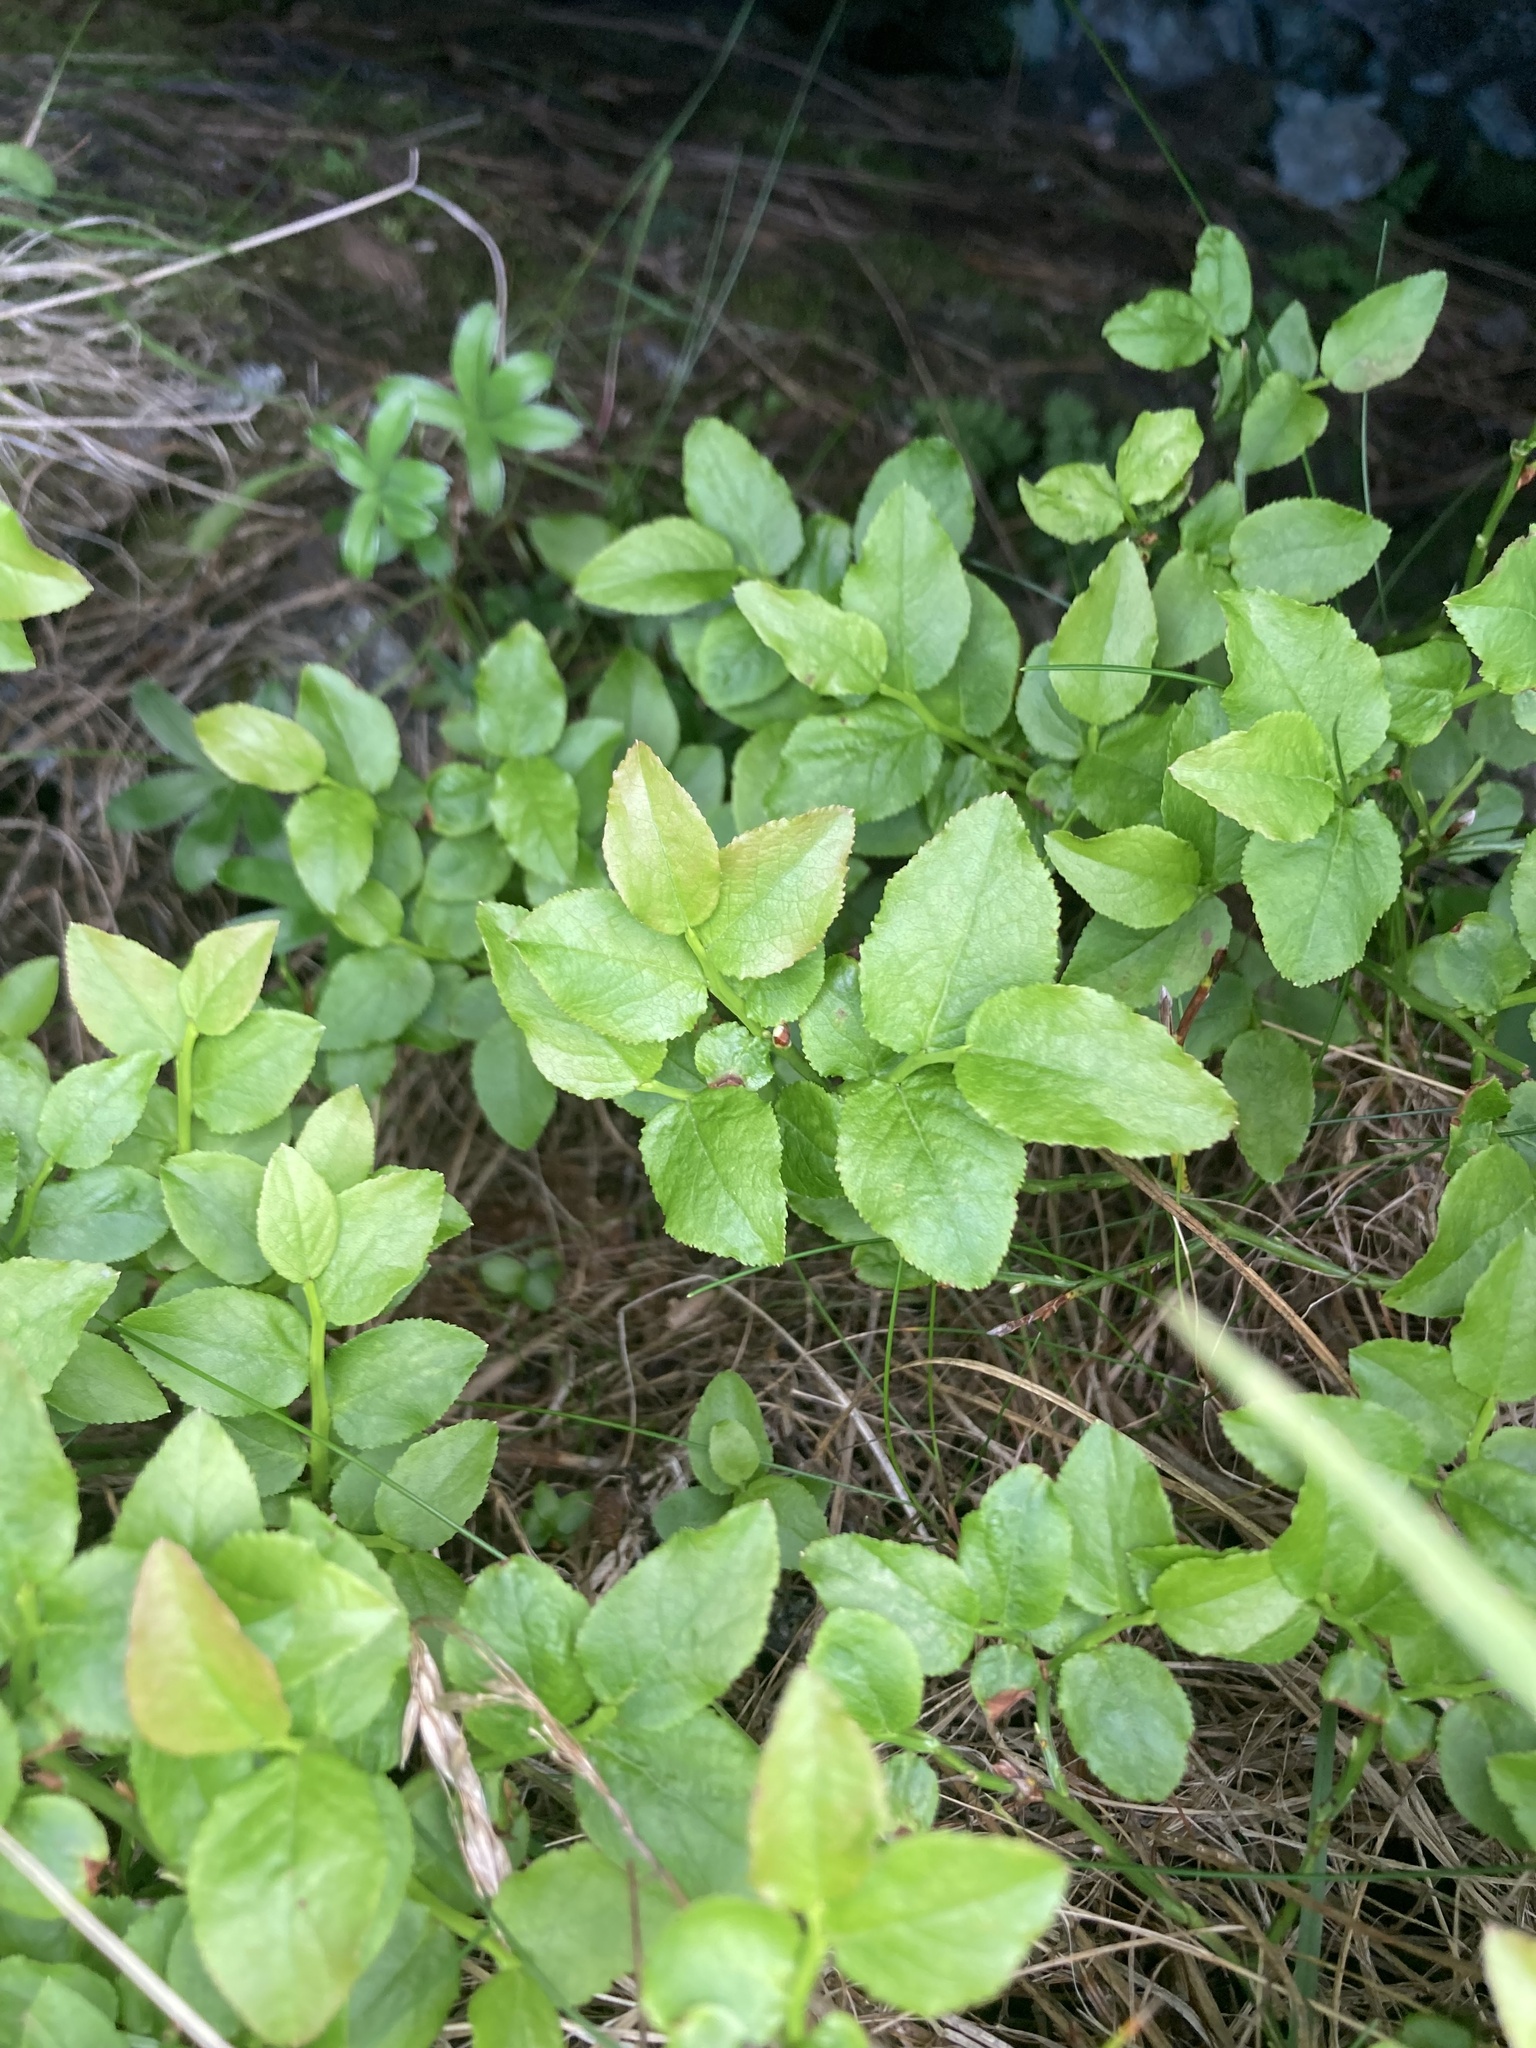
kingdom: Plantae
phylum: Tracheophyta
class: Magnoliopsida
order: Ericales
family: Ericaceae
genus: Vaccinium
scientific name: Vaccinium myrtillus
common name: Bilberry
